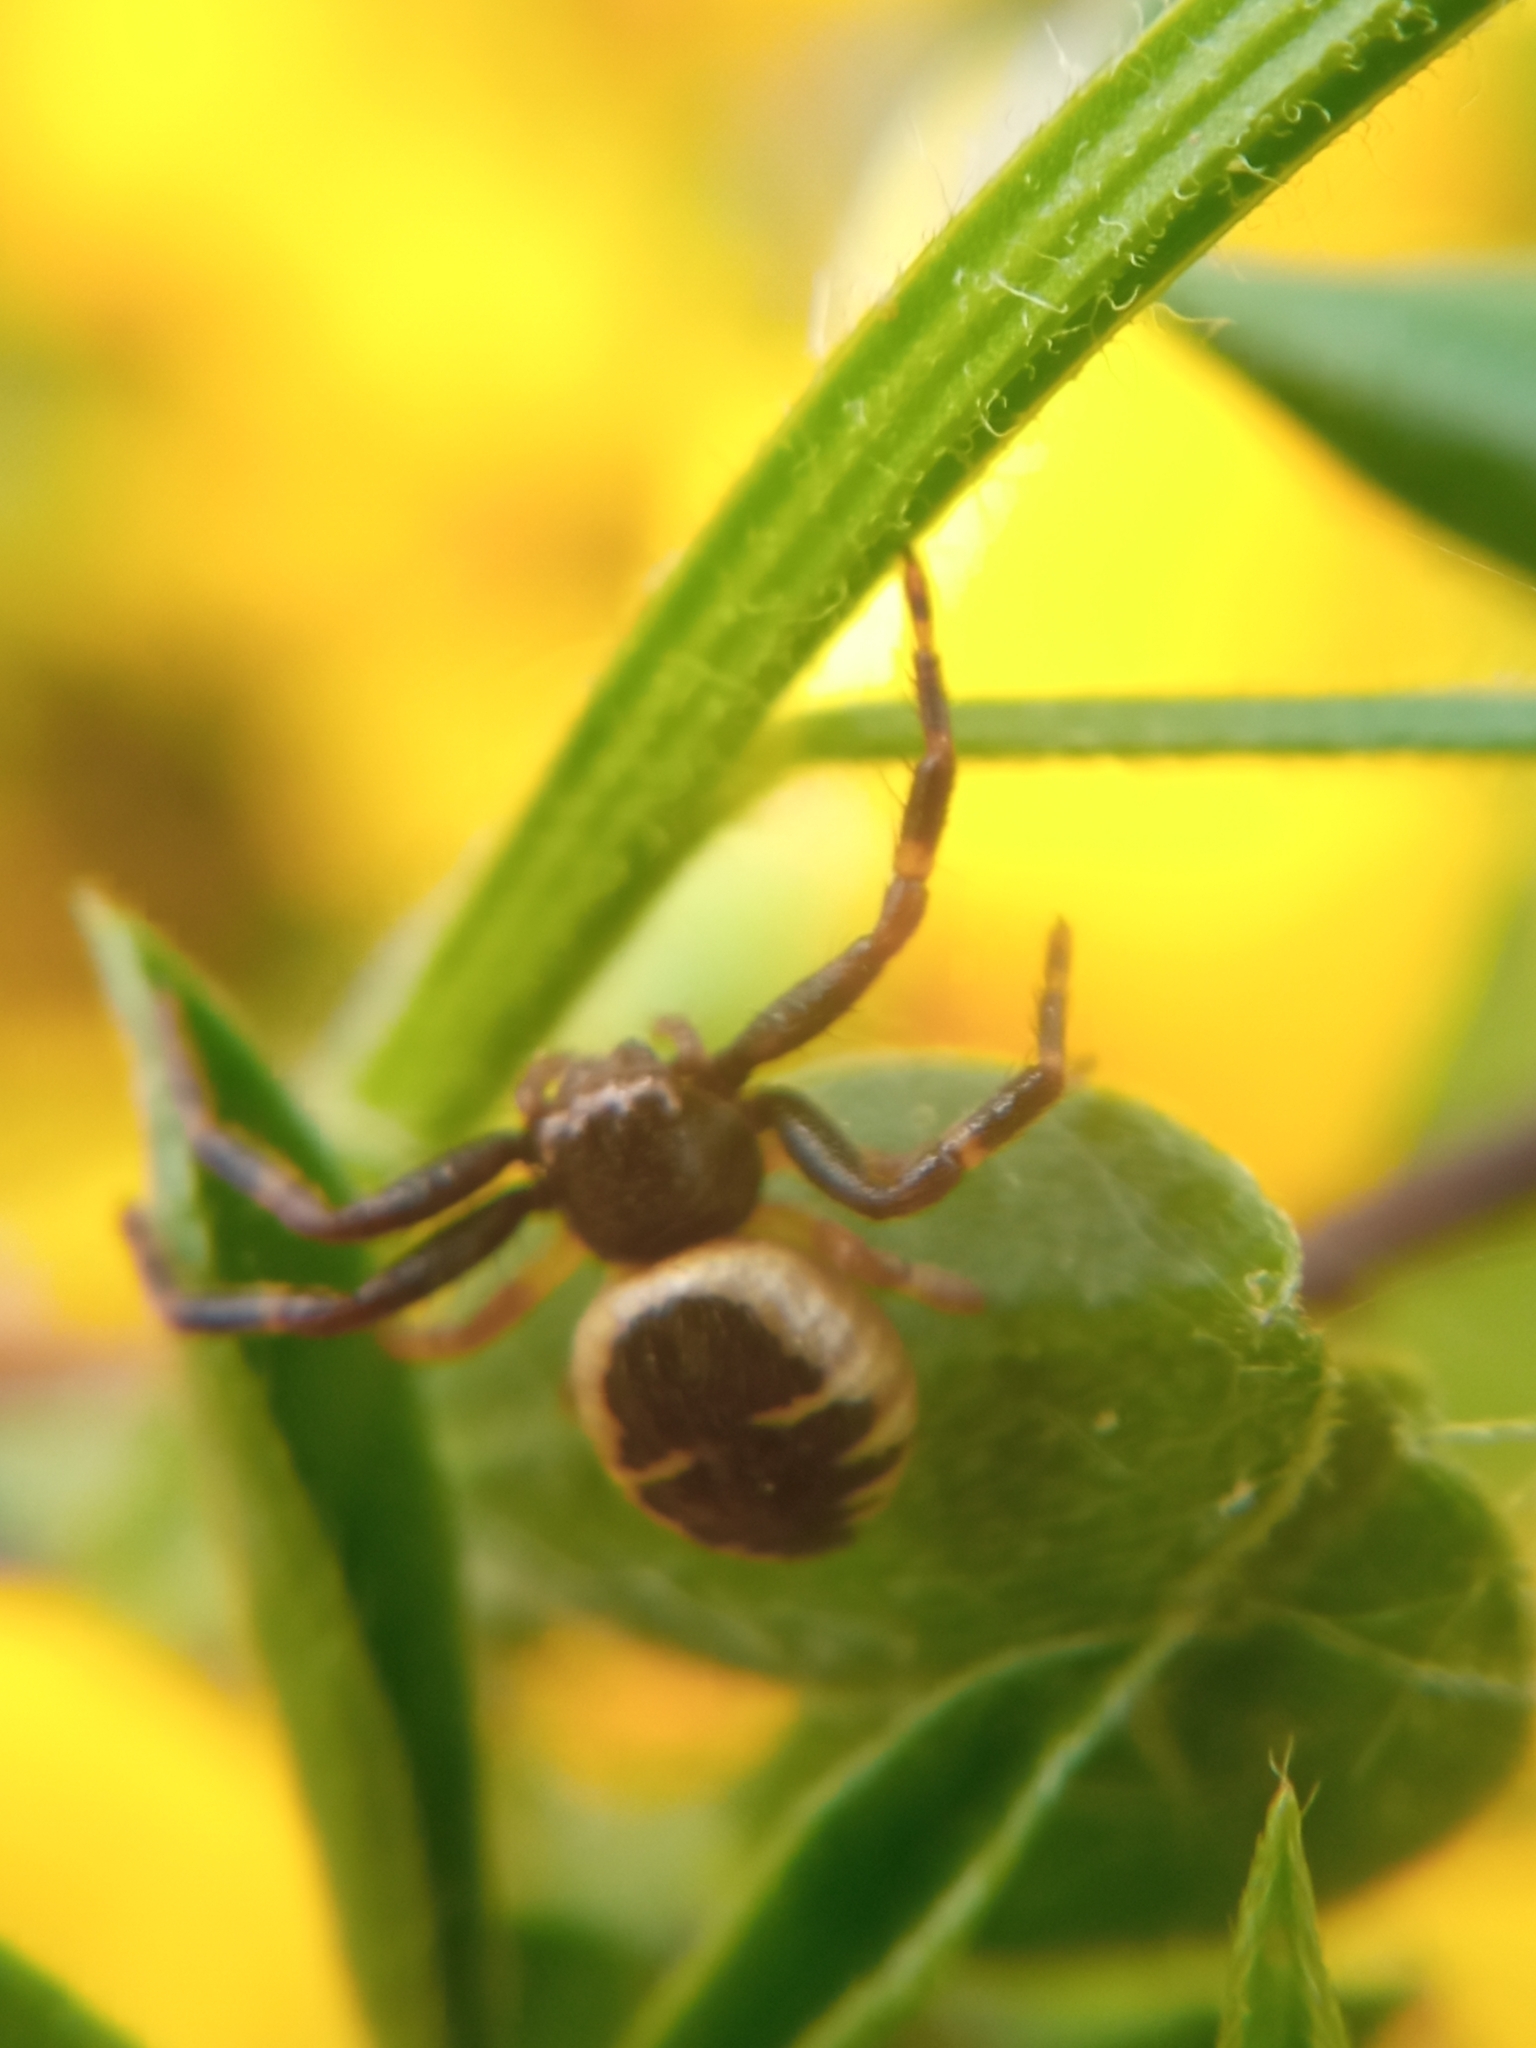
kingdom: Animalia
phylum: Arthropoda
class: Arachnida
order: Araneae
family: Thomisidae
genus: Synema
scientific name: Synema globosum
